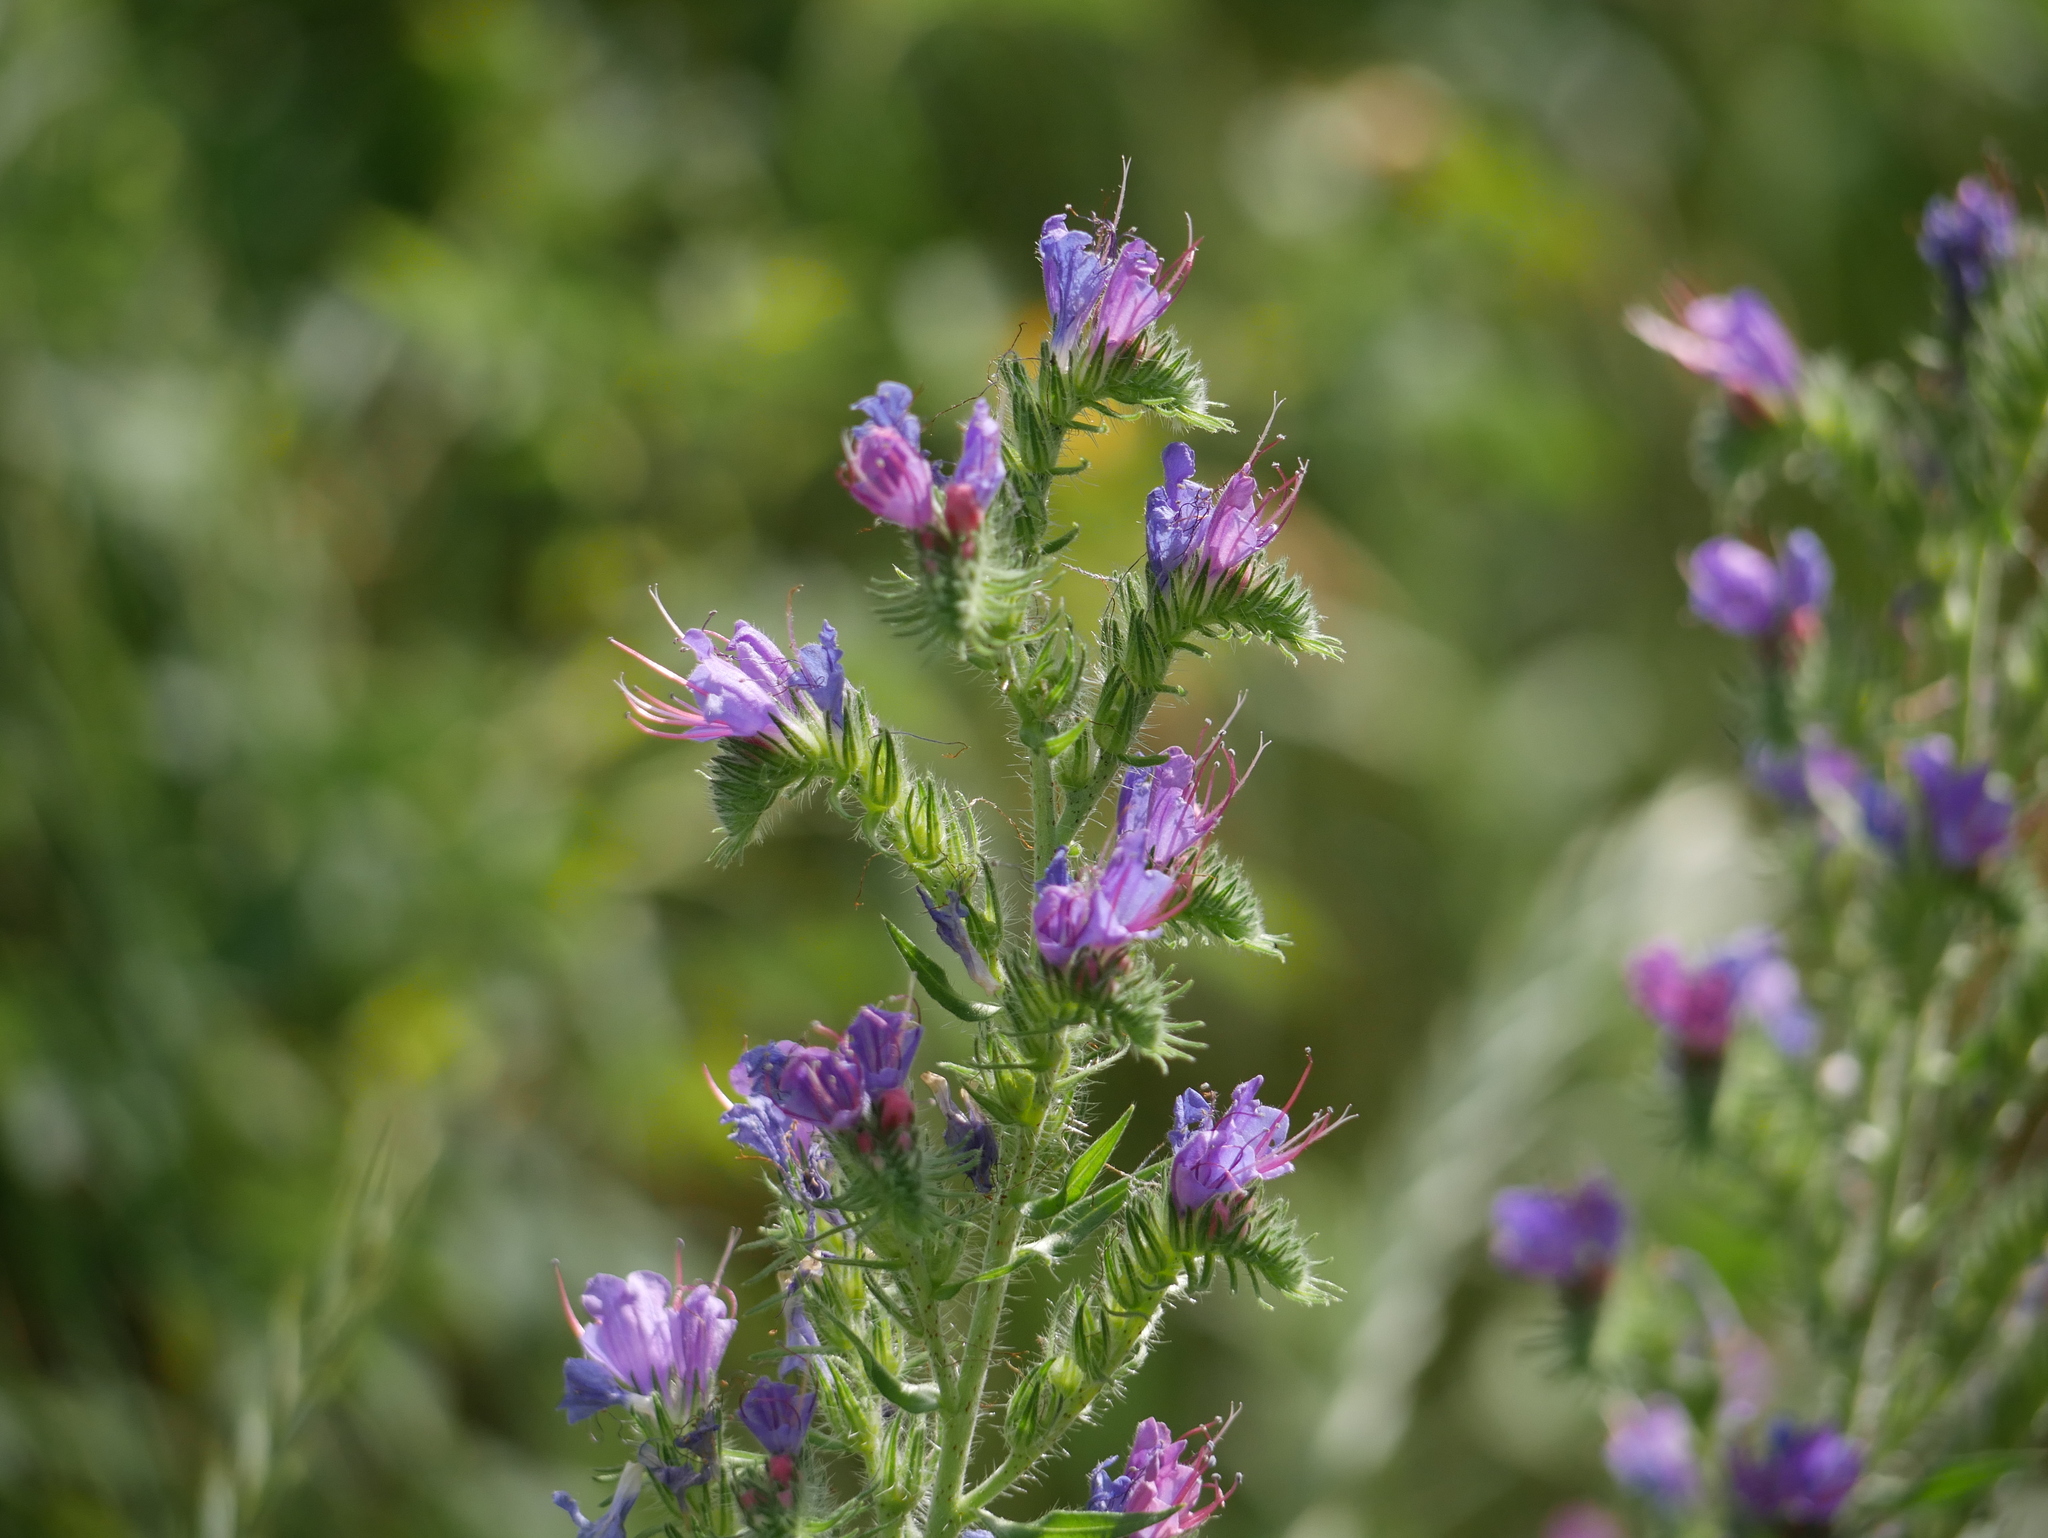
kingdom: Plantae
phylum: Tracheophyta
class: Magnoliopsida
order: Boraginales
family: Boraginaceae
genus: Echium
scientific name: Echium vulgare
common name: Common viper's bugloss
